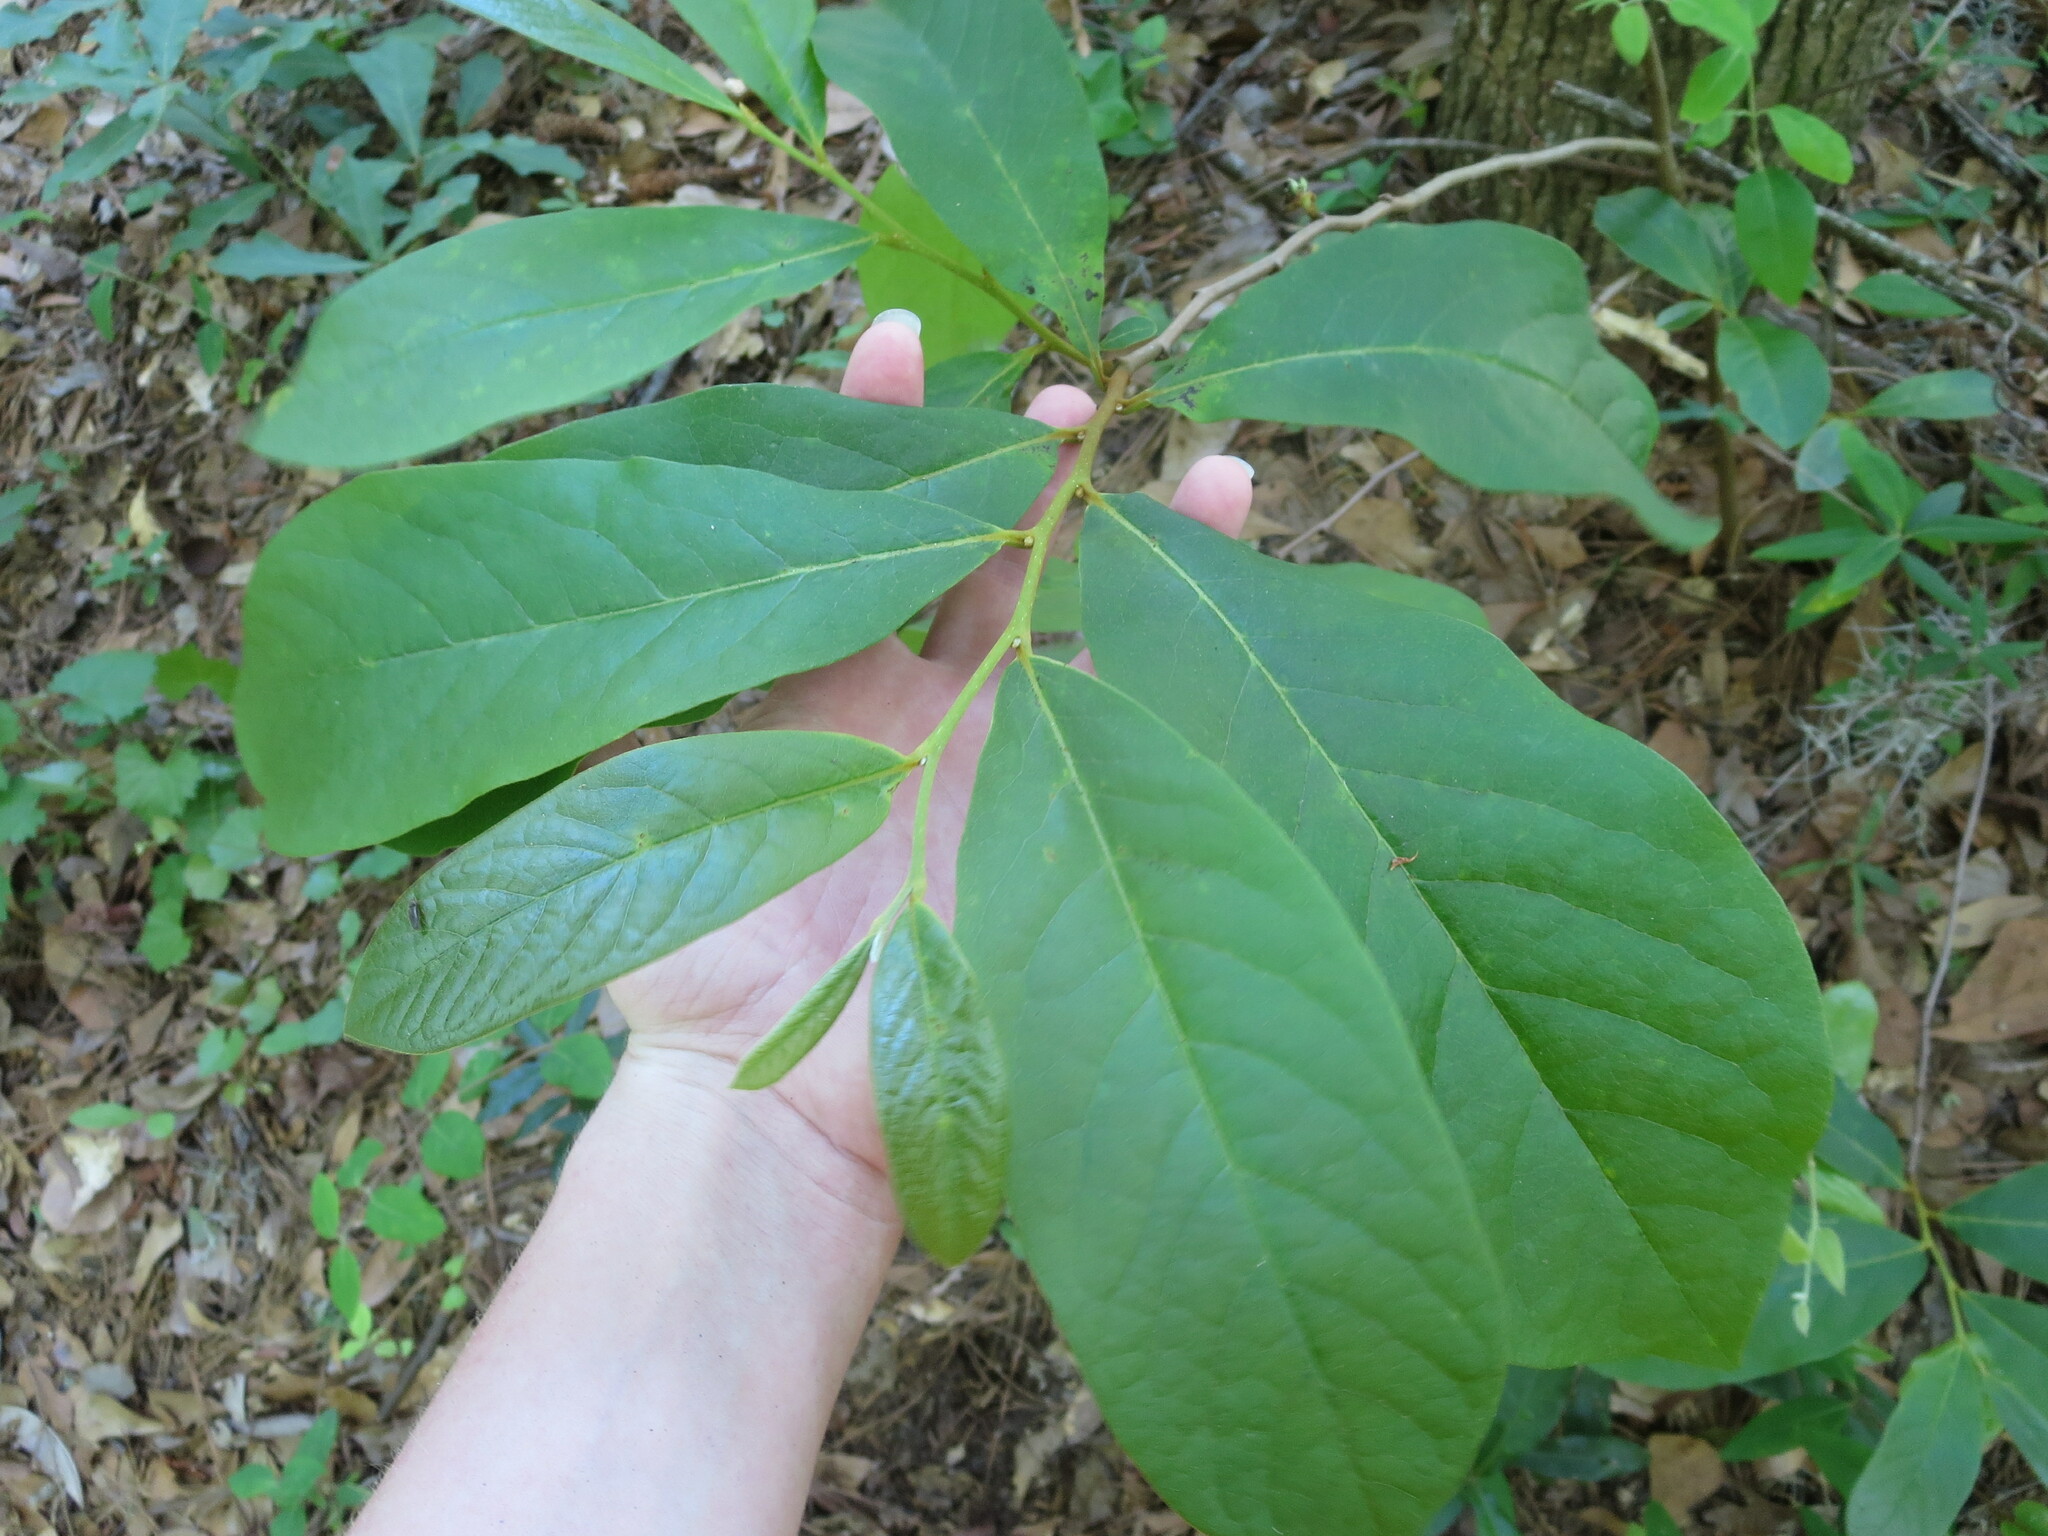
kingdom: Plantae
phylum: Tracheophyta
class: Magnoliopsida
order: Magnoliales
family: Annonaceae
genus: Asimina
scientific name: Asimina parviflora
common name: Dwarf pawpaw
